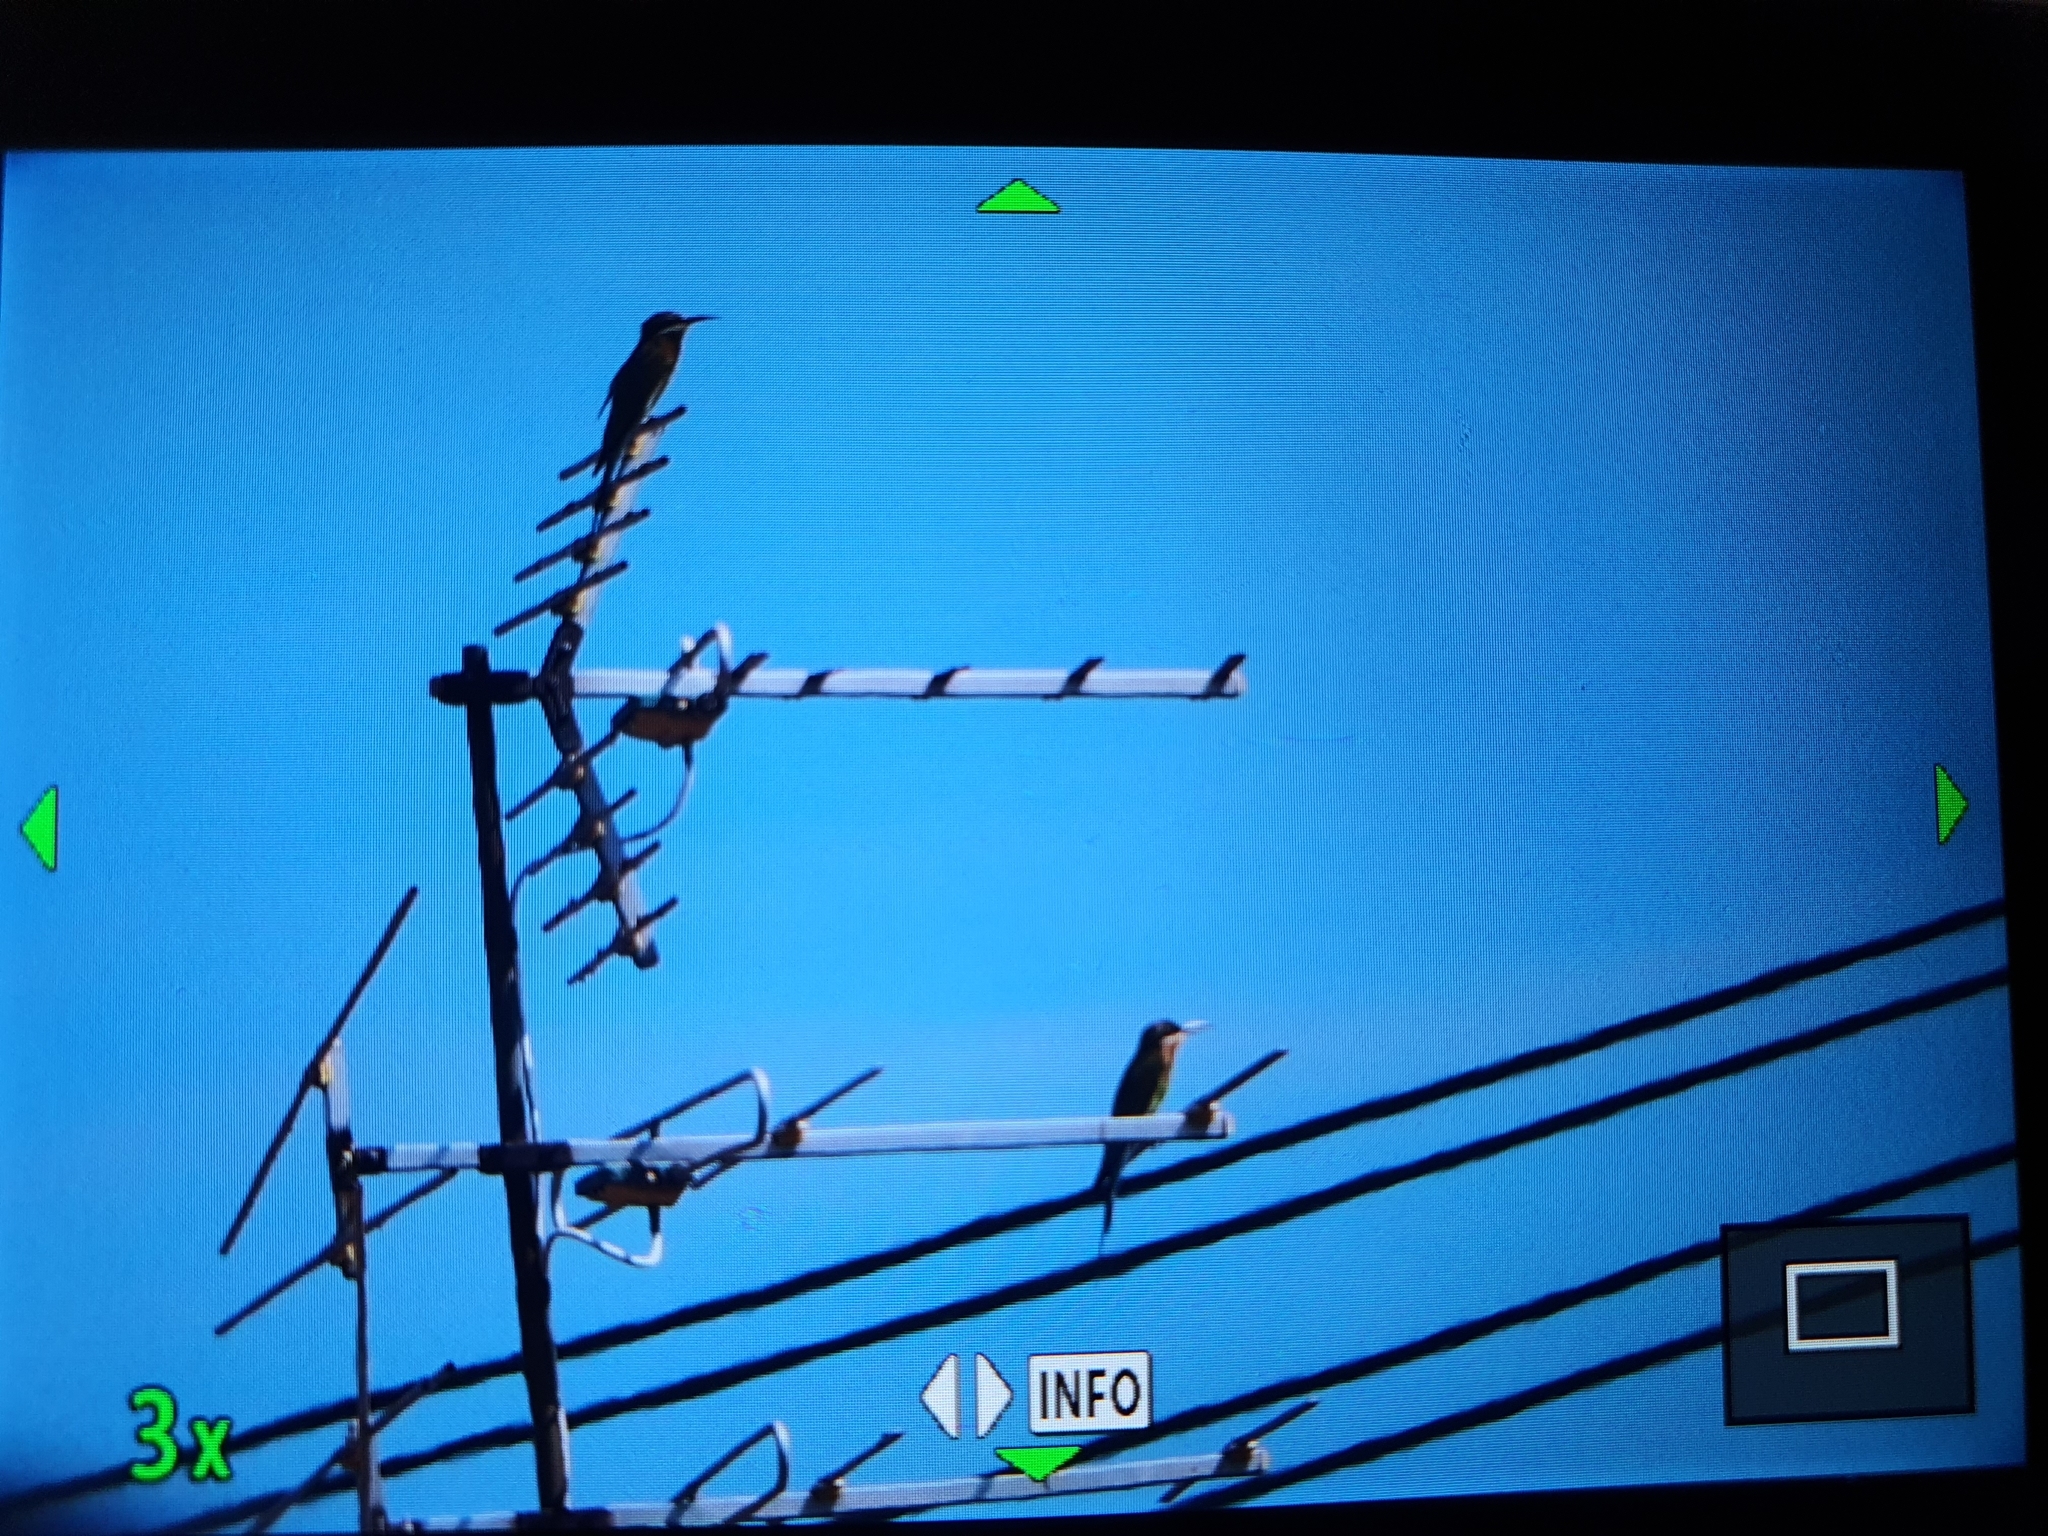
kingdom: Animalia
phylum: Chordata
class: Aves
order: Coraciiformes
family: Meropidae
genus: Merops
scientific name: Merops philippinus
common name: Blue-tailed bee-eater
